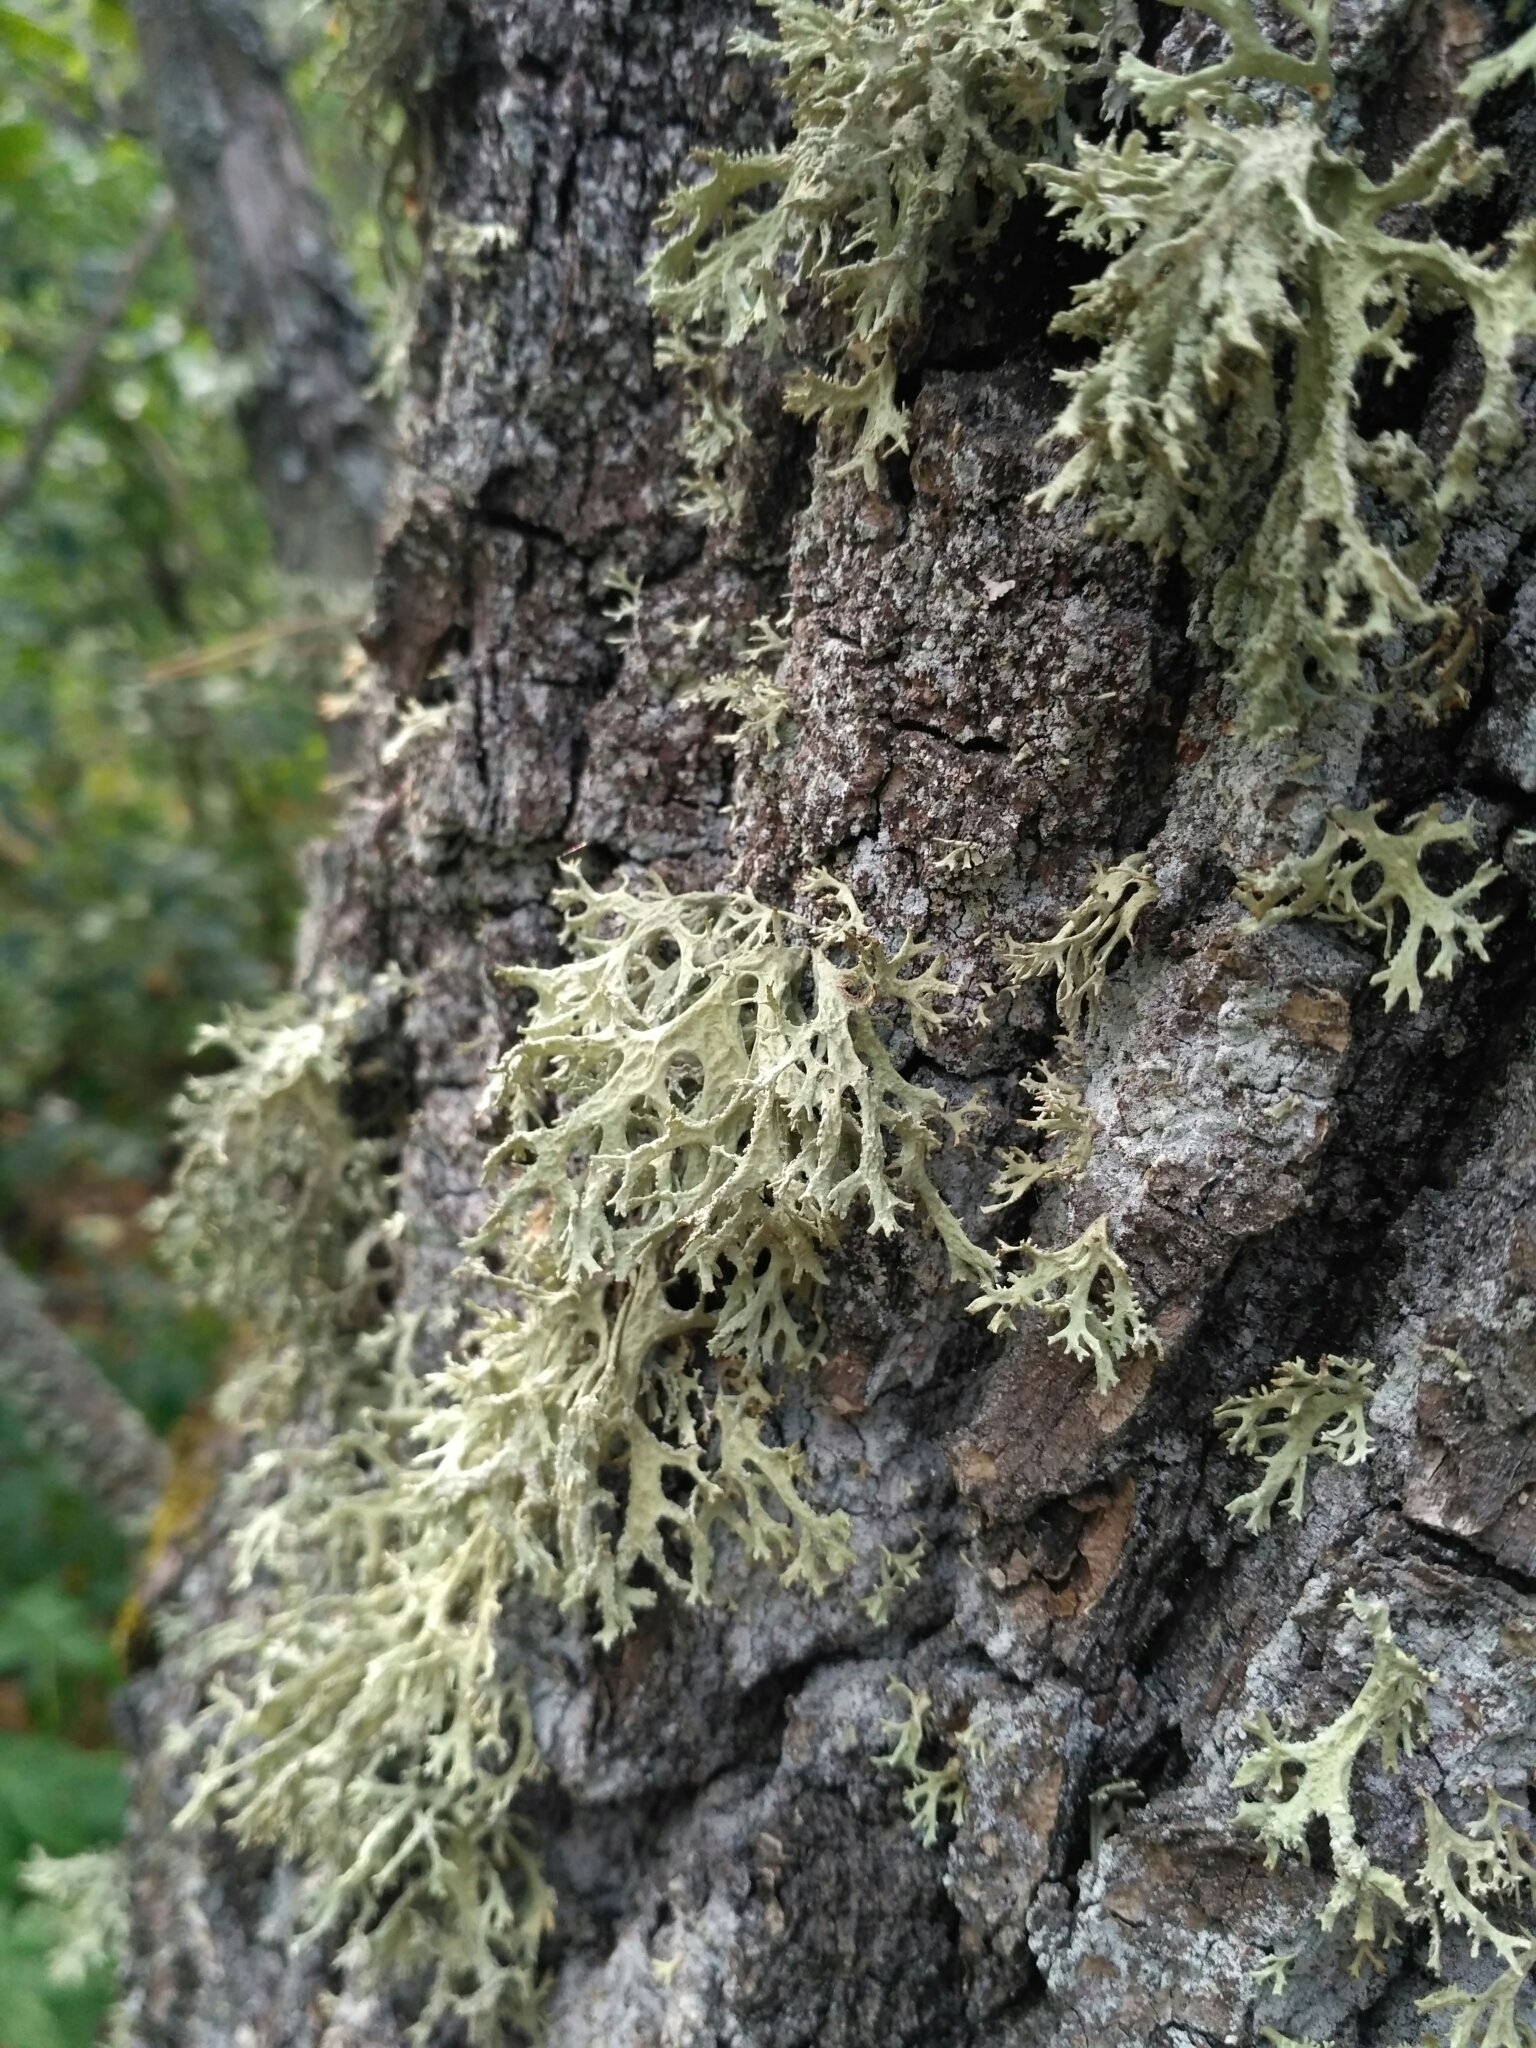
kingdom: Fungi
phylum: Ascomycota
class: Lecanoromycetes
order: Lecanorales
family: Parmeliaceae
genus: Evernia
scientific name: Evernia prunastri
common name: Oak moss
